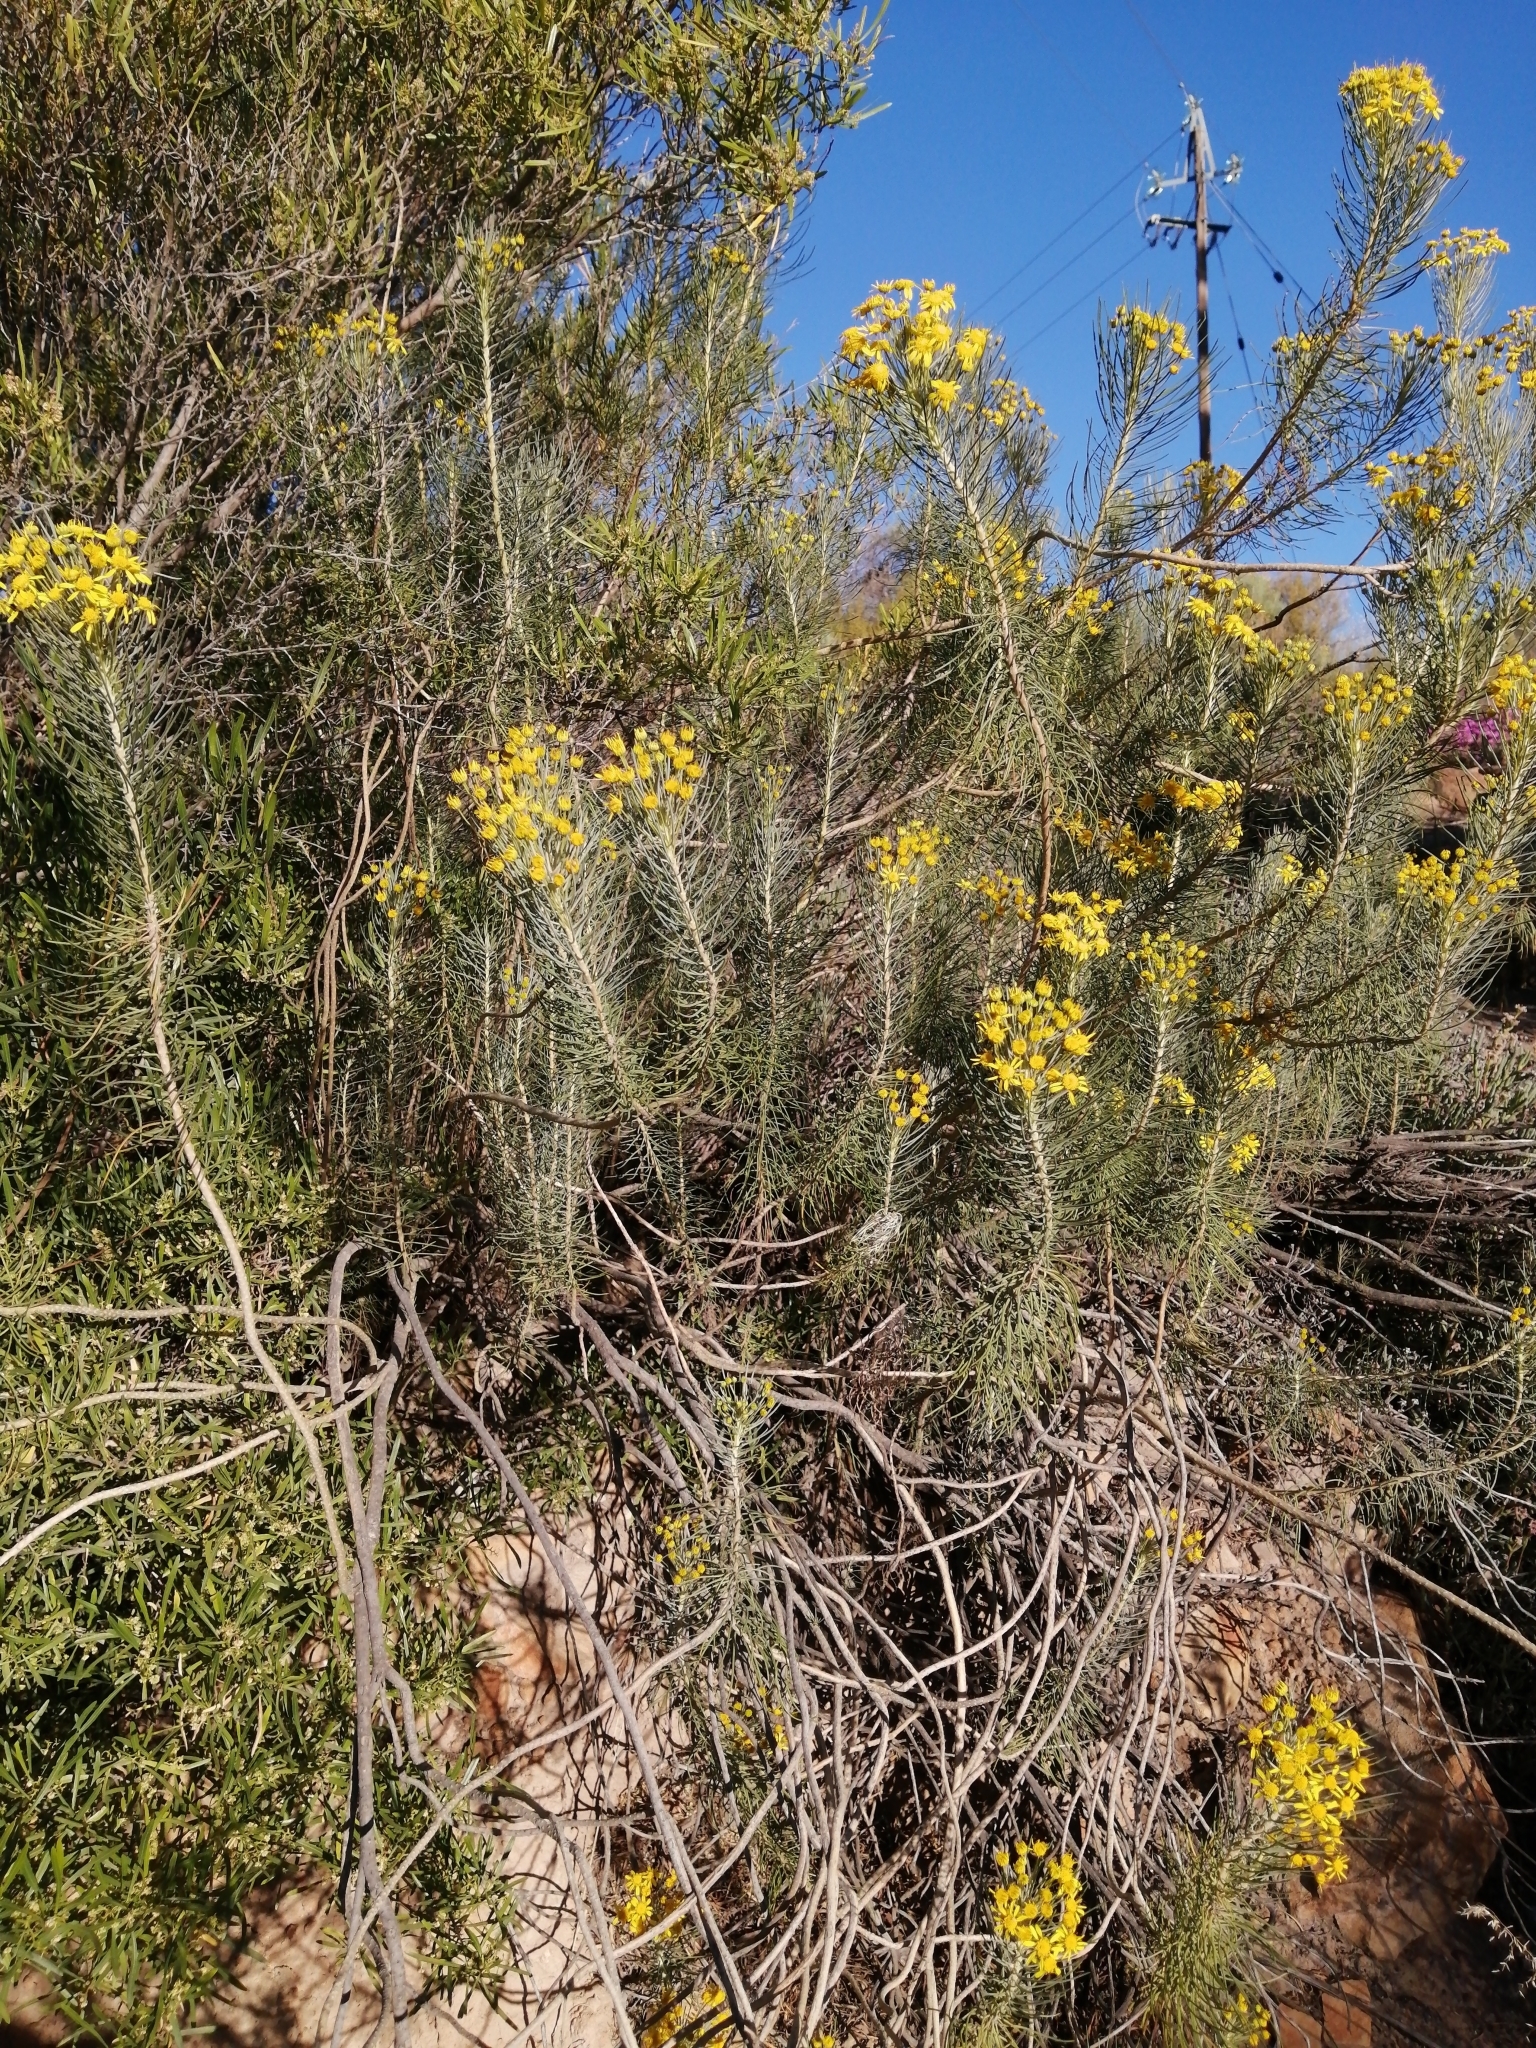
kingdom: Plantae
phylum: Tracheophyta
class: Magnoliopsida
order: Asterales
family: Asteraceae
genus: Euryops
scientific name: Euryops tenuissimus
